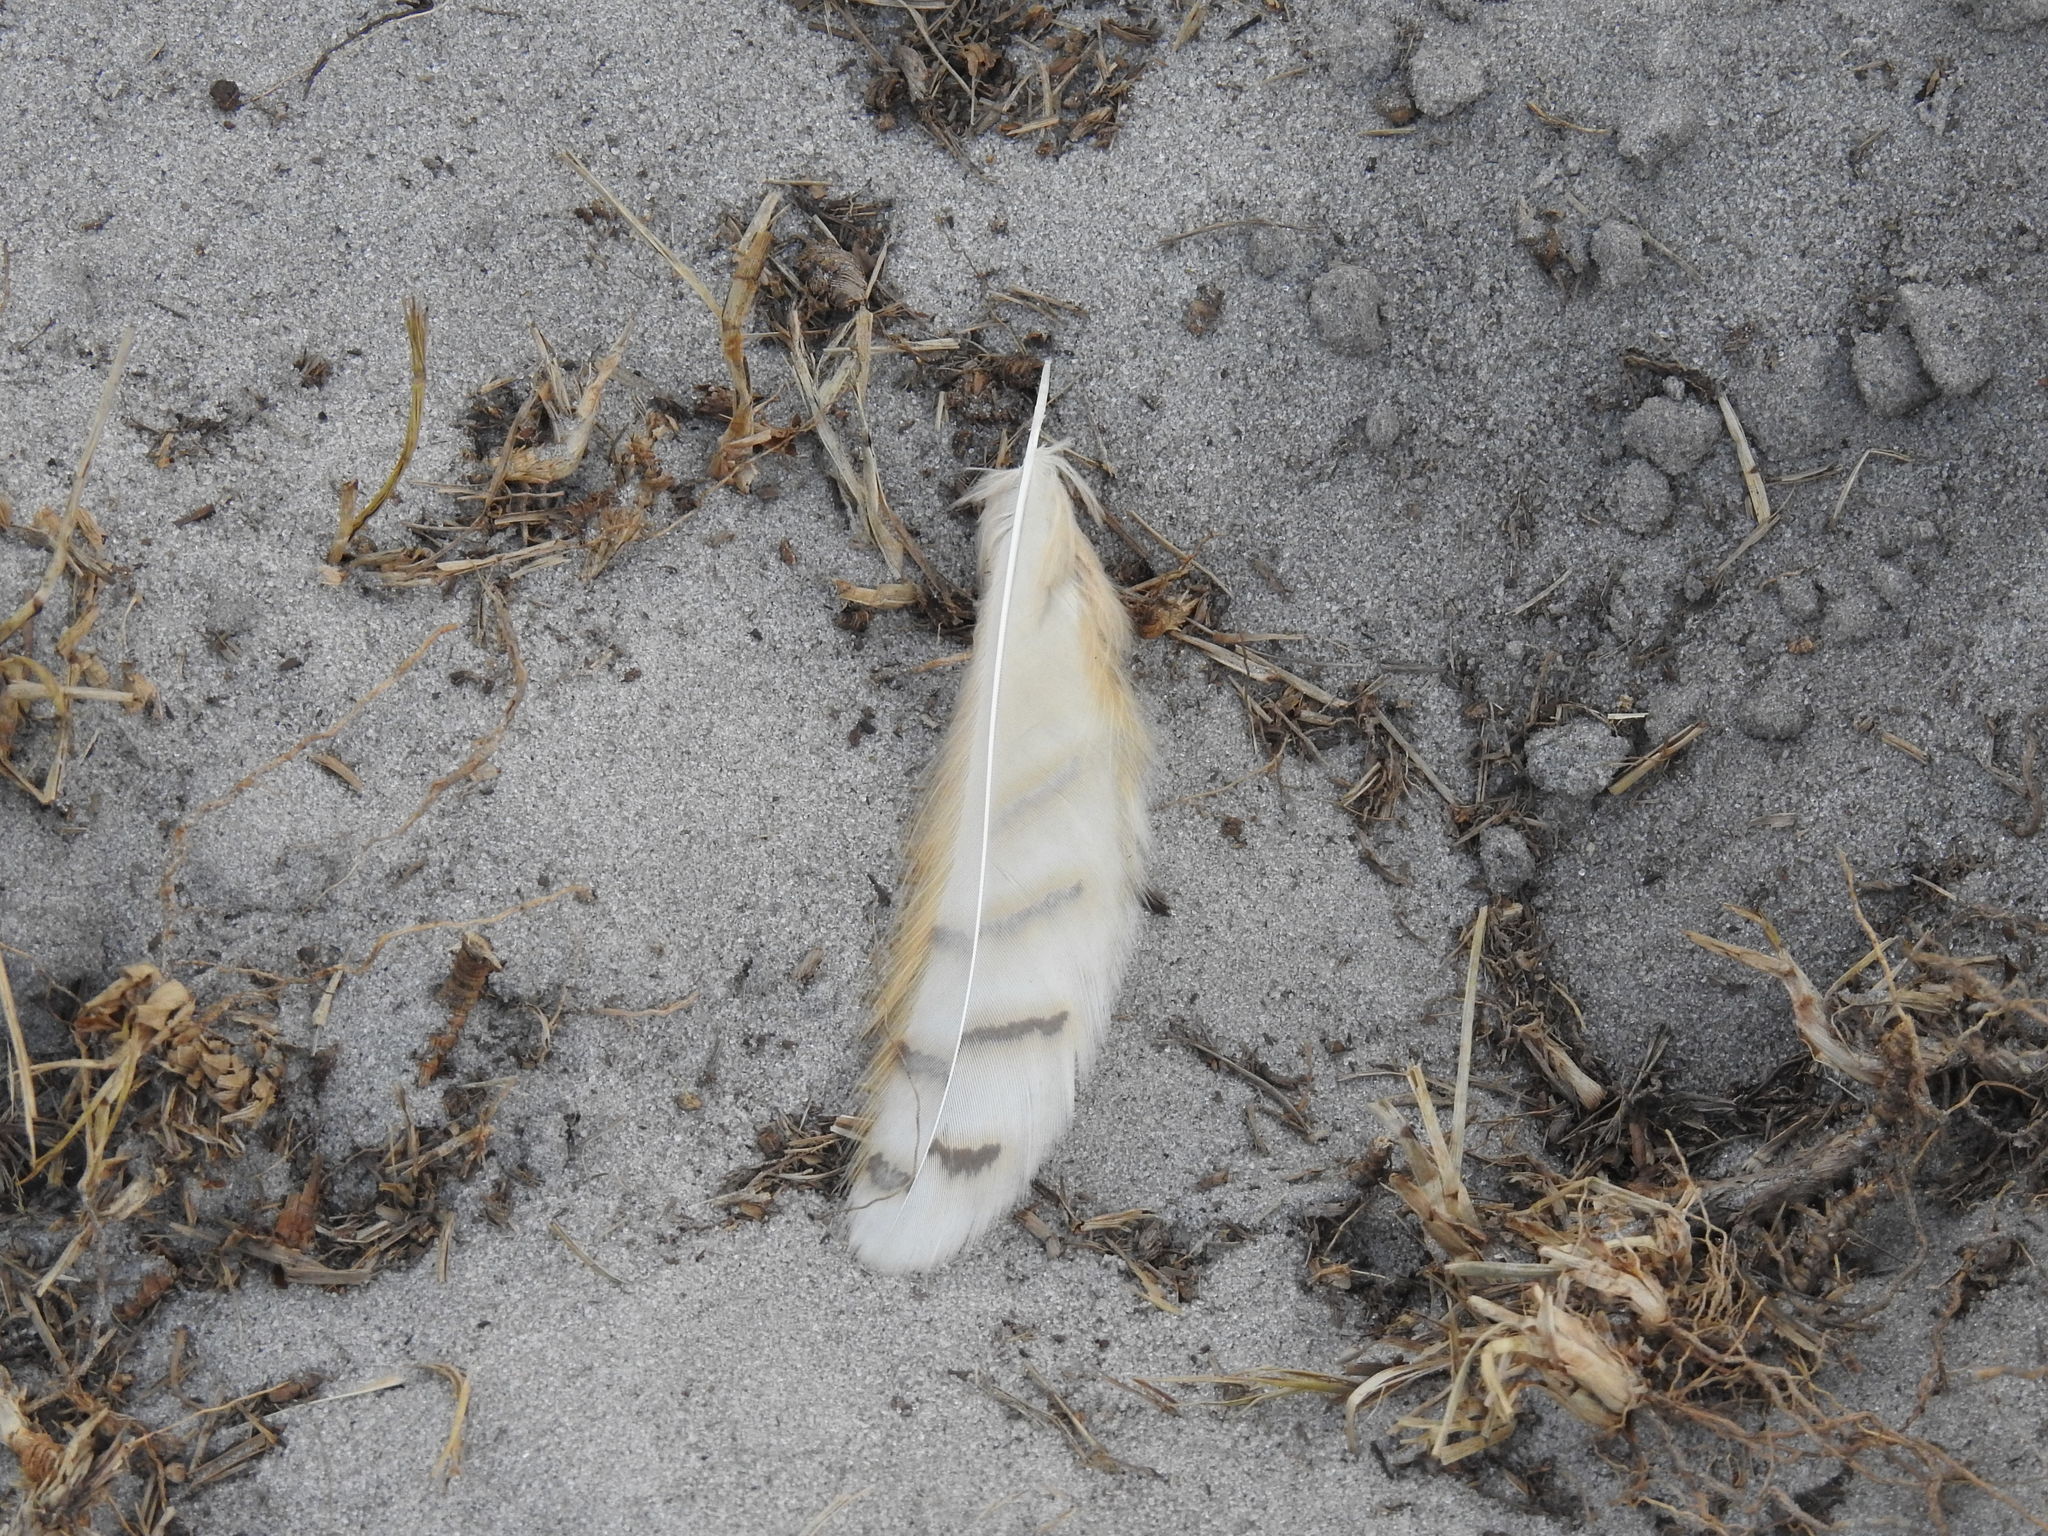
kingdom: Animalia
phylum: Chordata
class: Aves
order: Strigiformes
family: Strigidae
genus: Bubo
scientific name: Bubo virginianus
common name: Great horned owl
